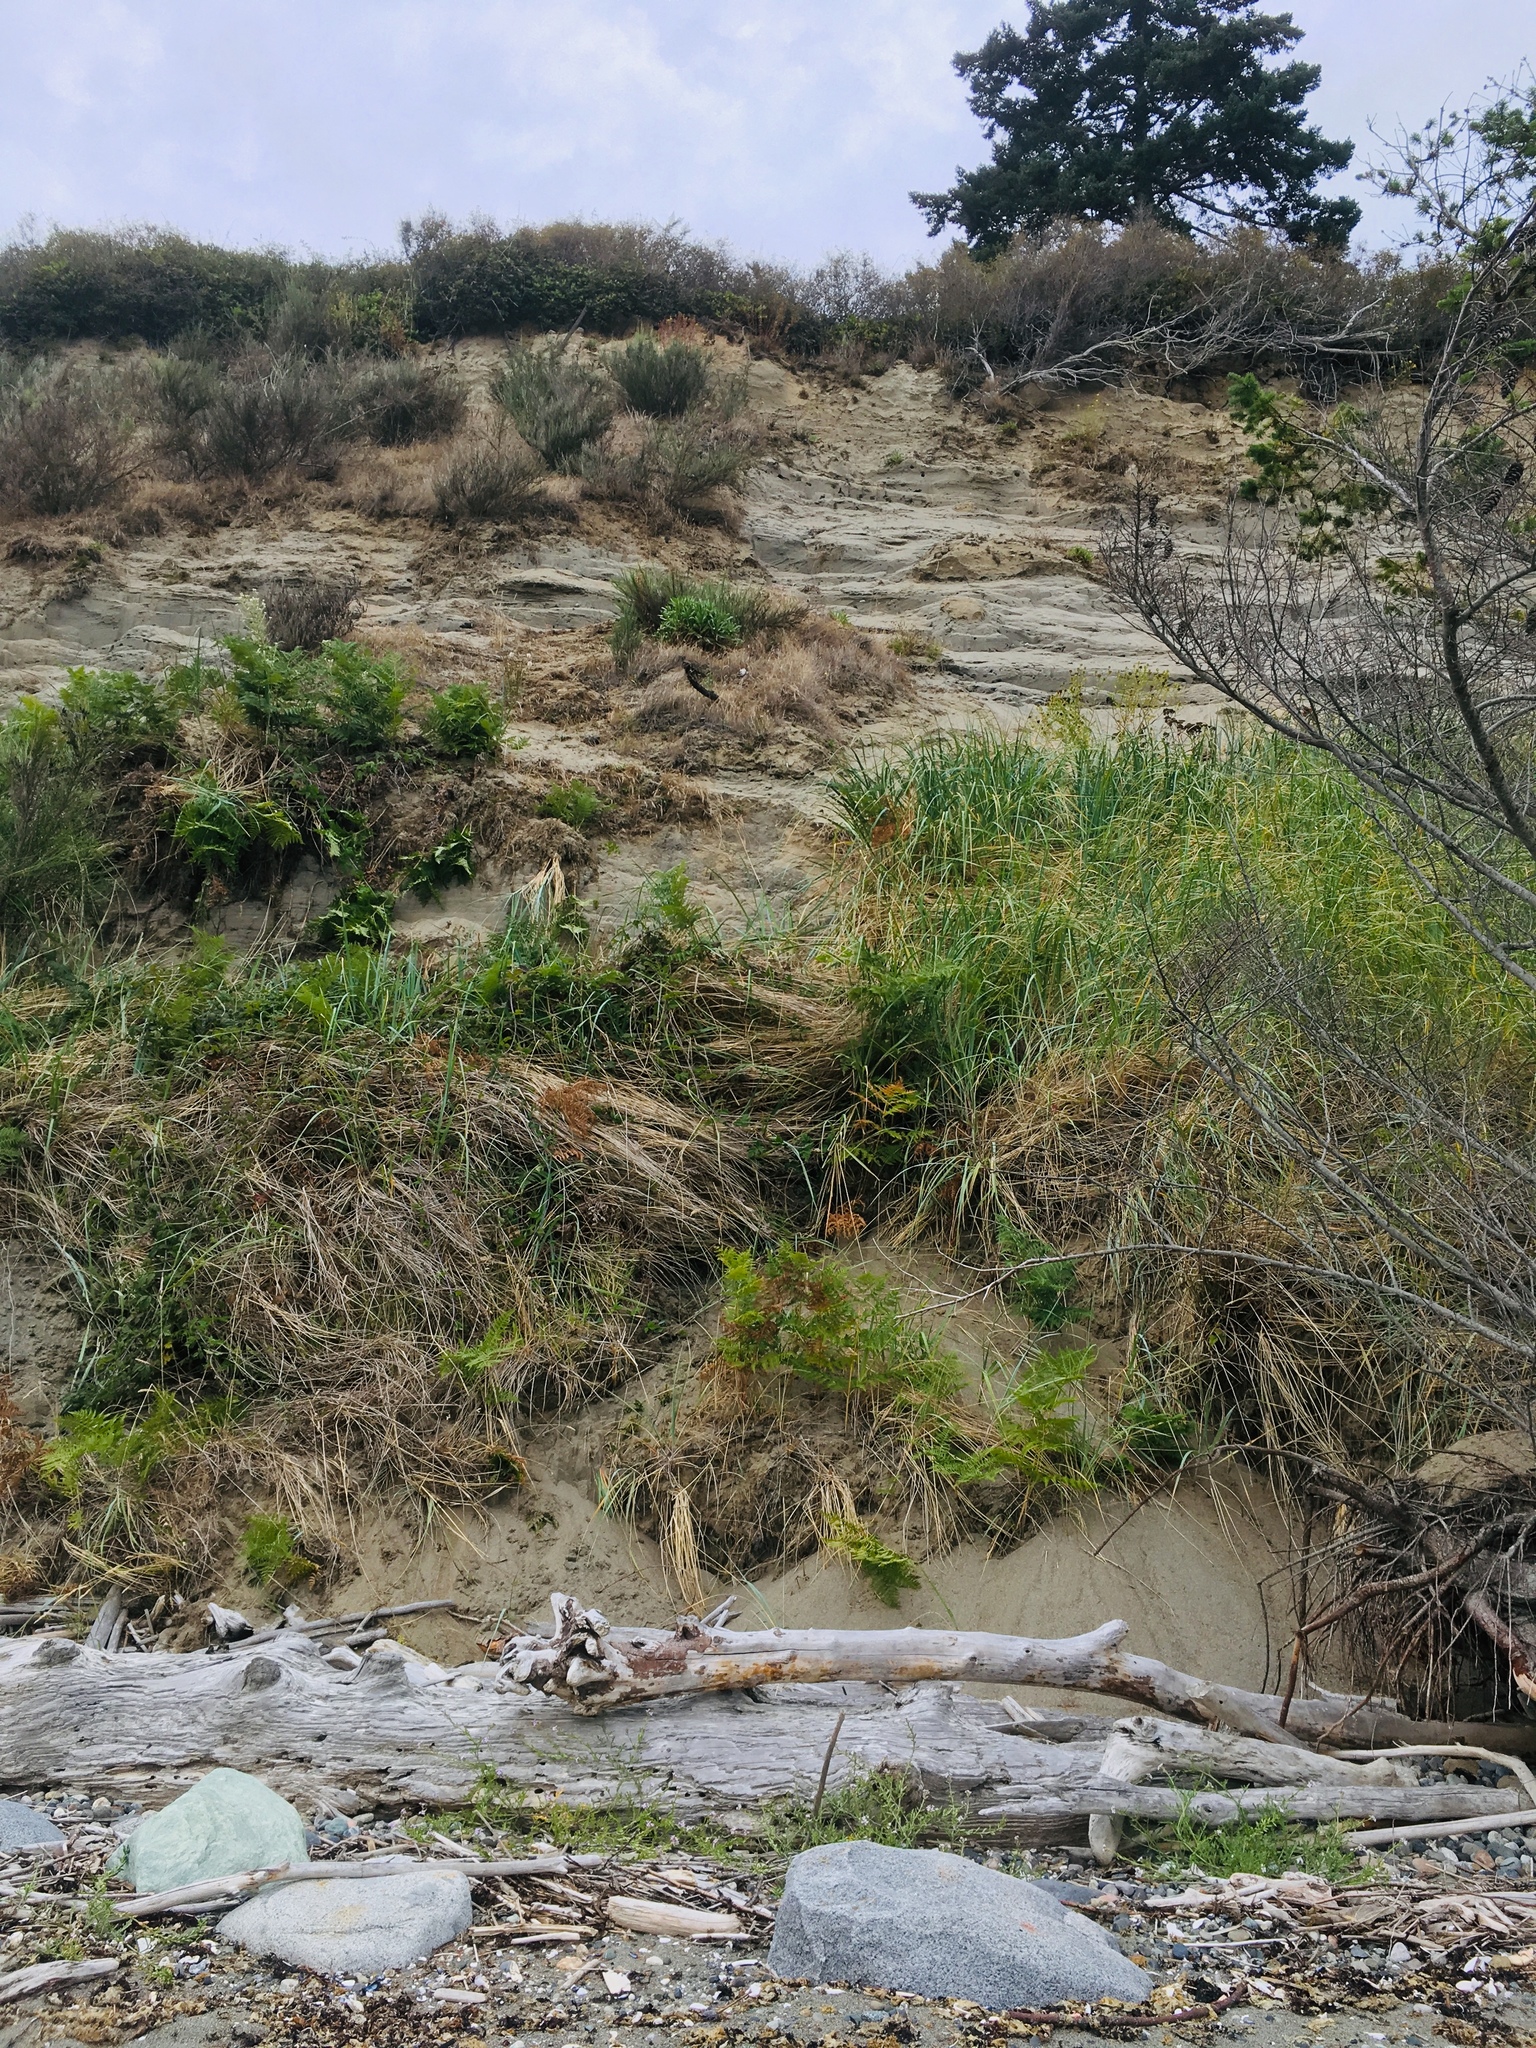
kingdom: Plantae
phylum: Tracheophyta
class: Polypodiopsida
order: Polypodiales
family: Dennstaedtiaceae
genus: Pteridium
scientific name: Pteridium aquilinum
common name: Bracken
